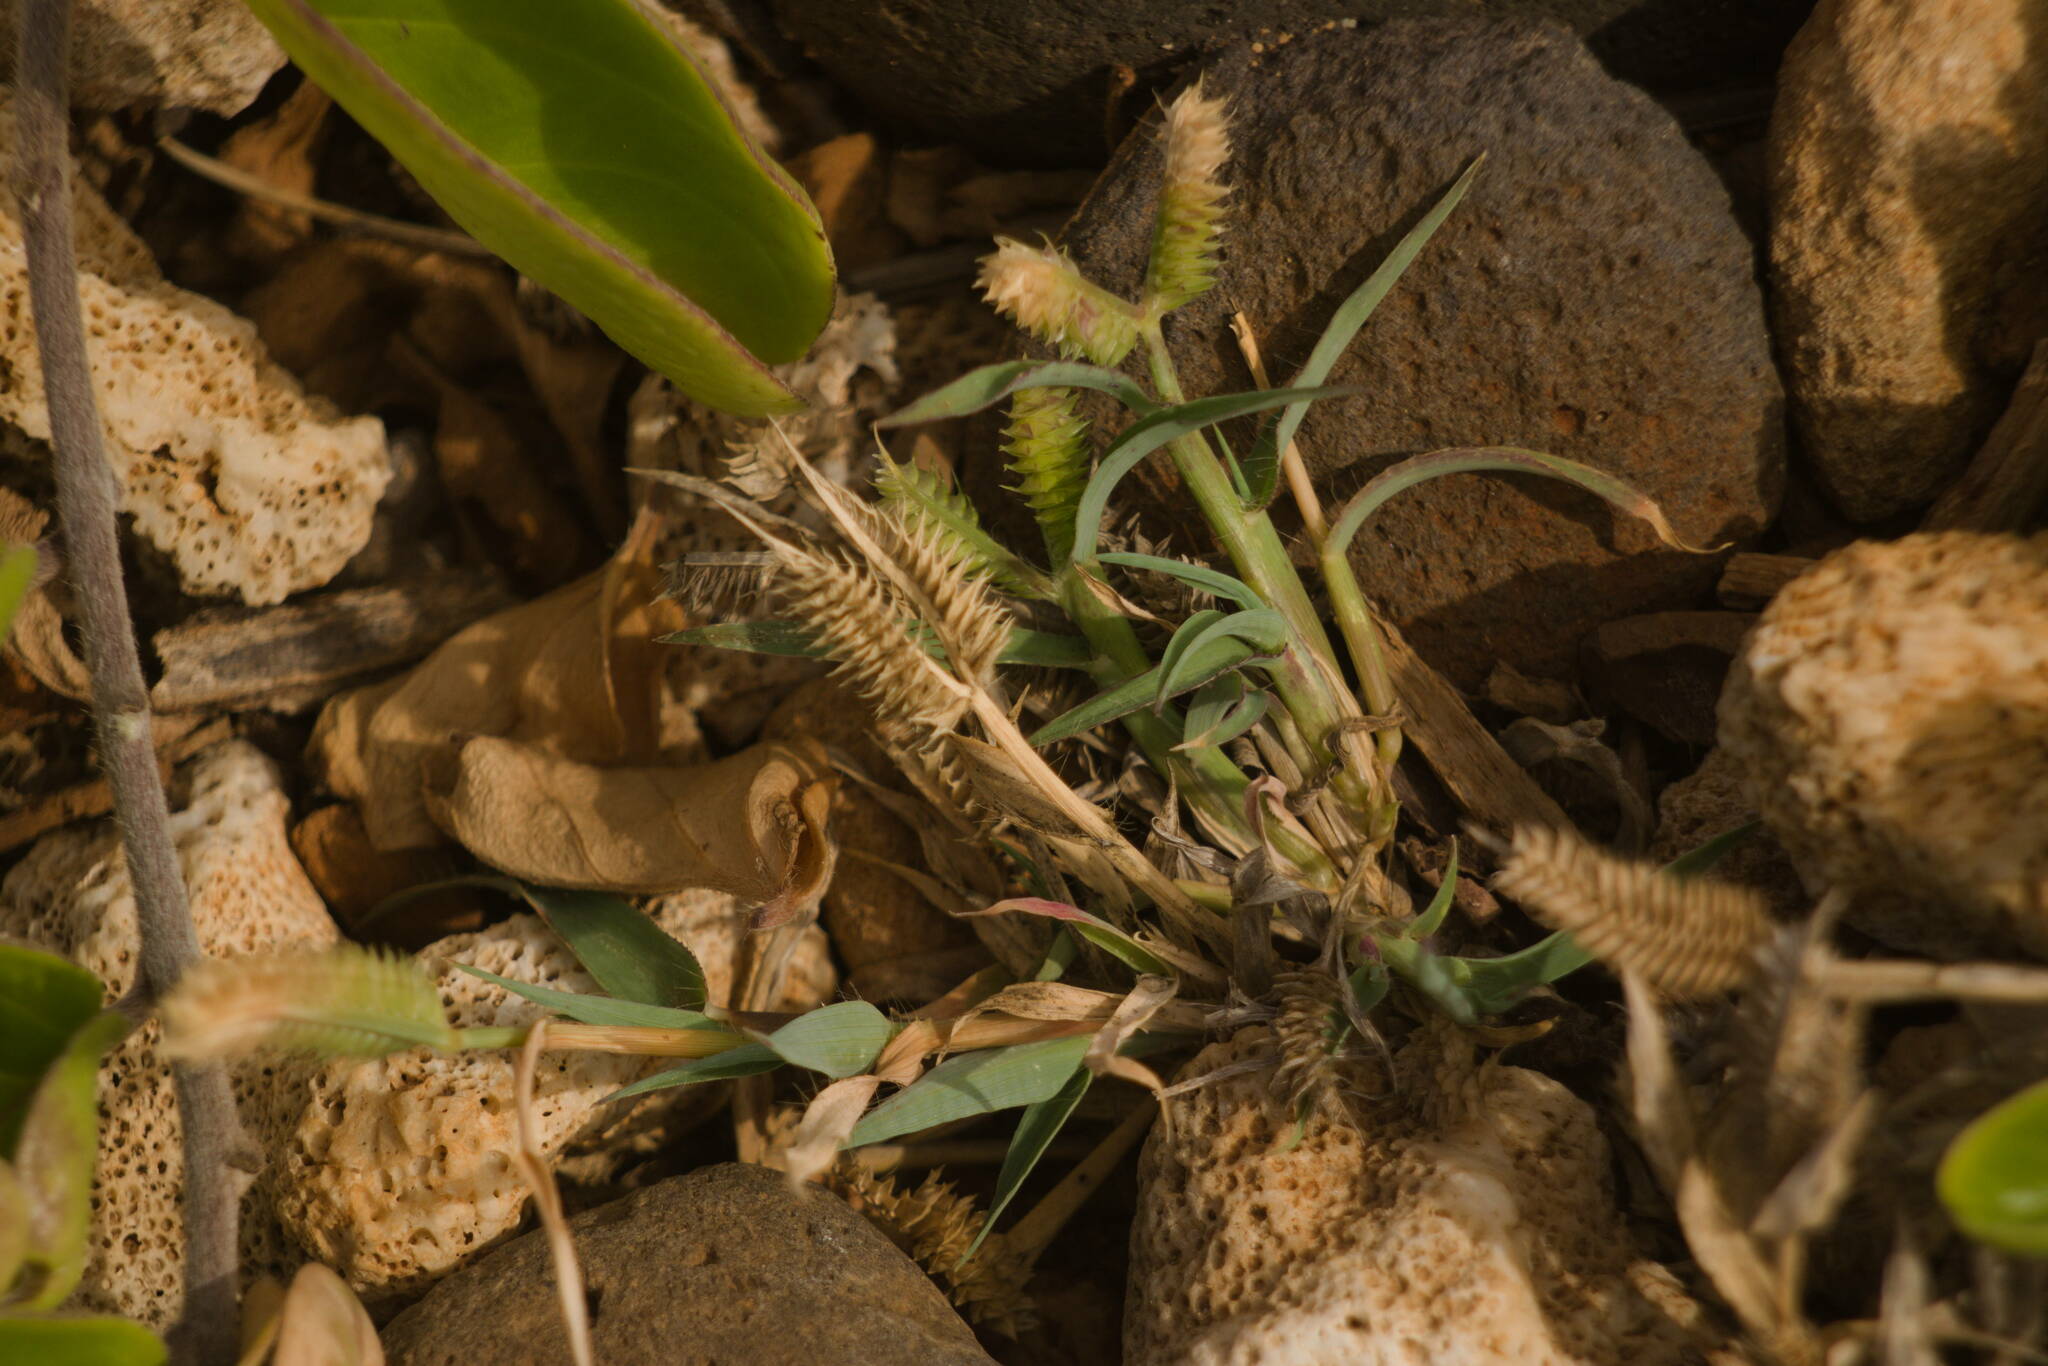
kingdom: Plantae
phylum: Tracheophyta
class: Liliopsida
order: Poales
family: Poaceae
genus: Dactyloctenium
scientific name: Dactyloctenium aegyptium
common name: Egyptian grass
